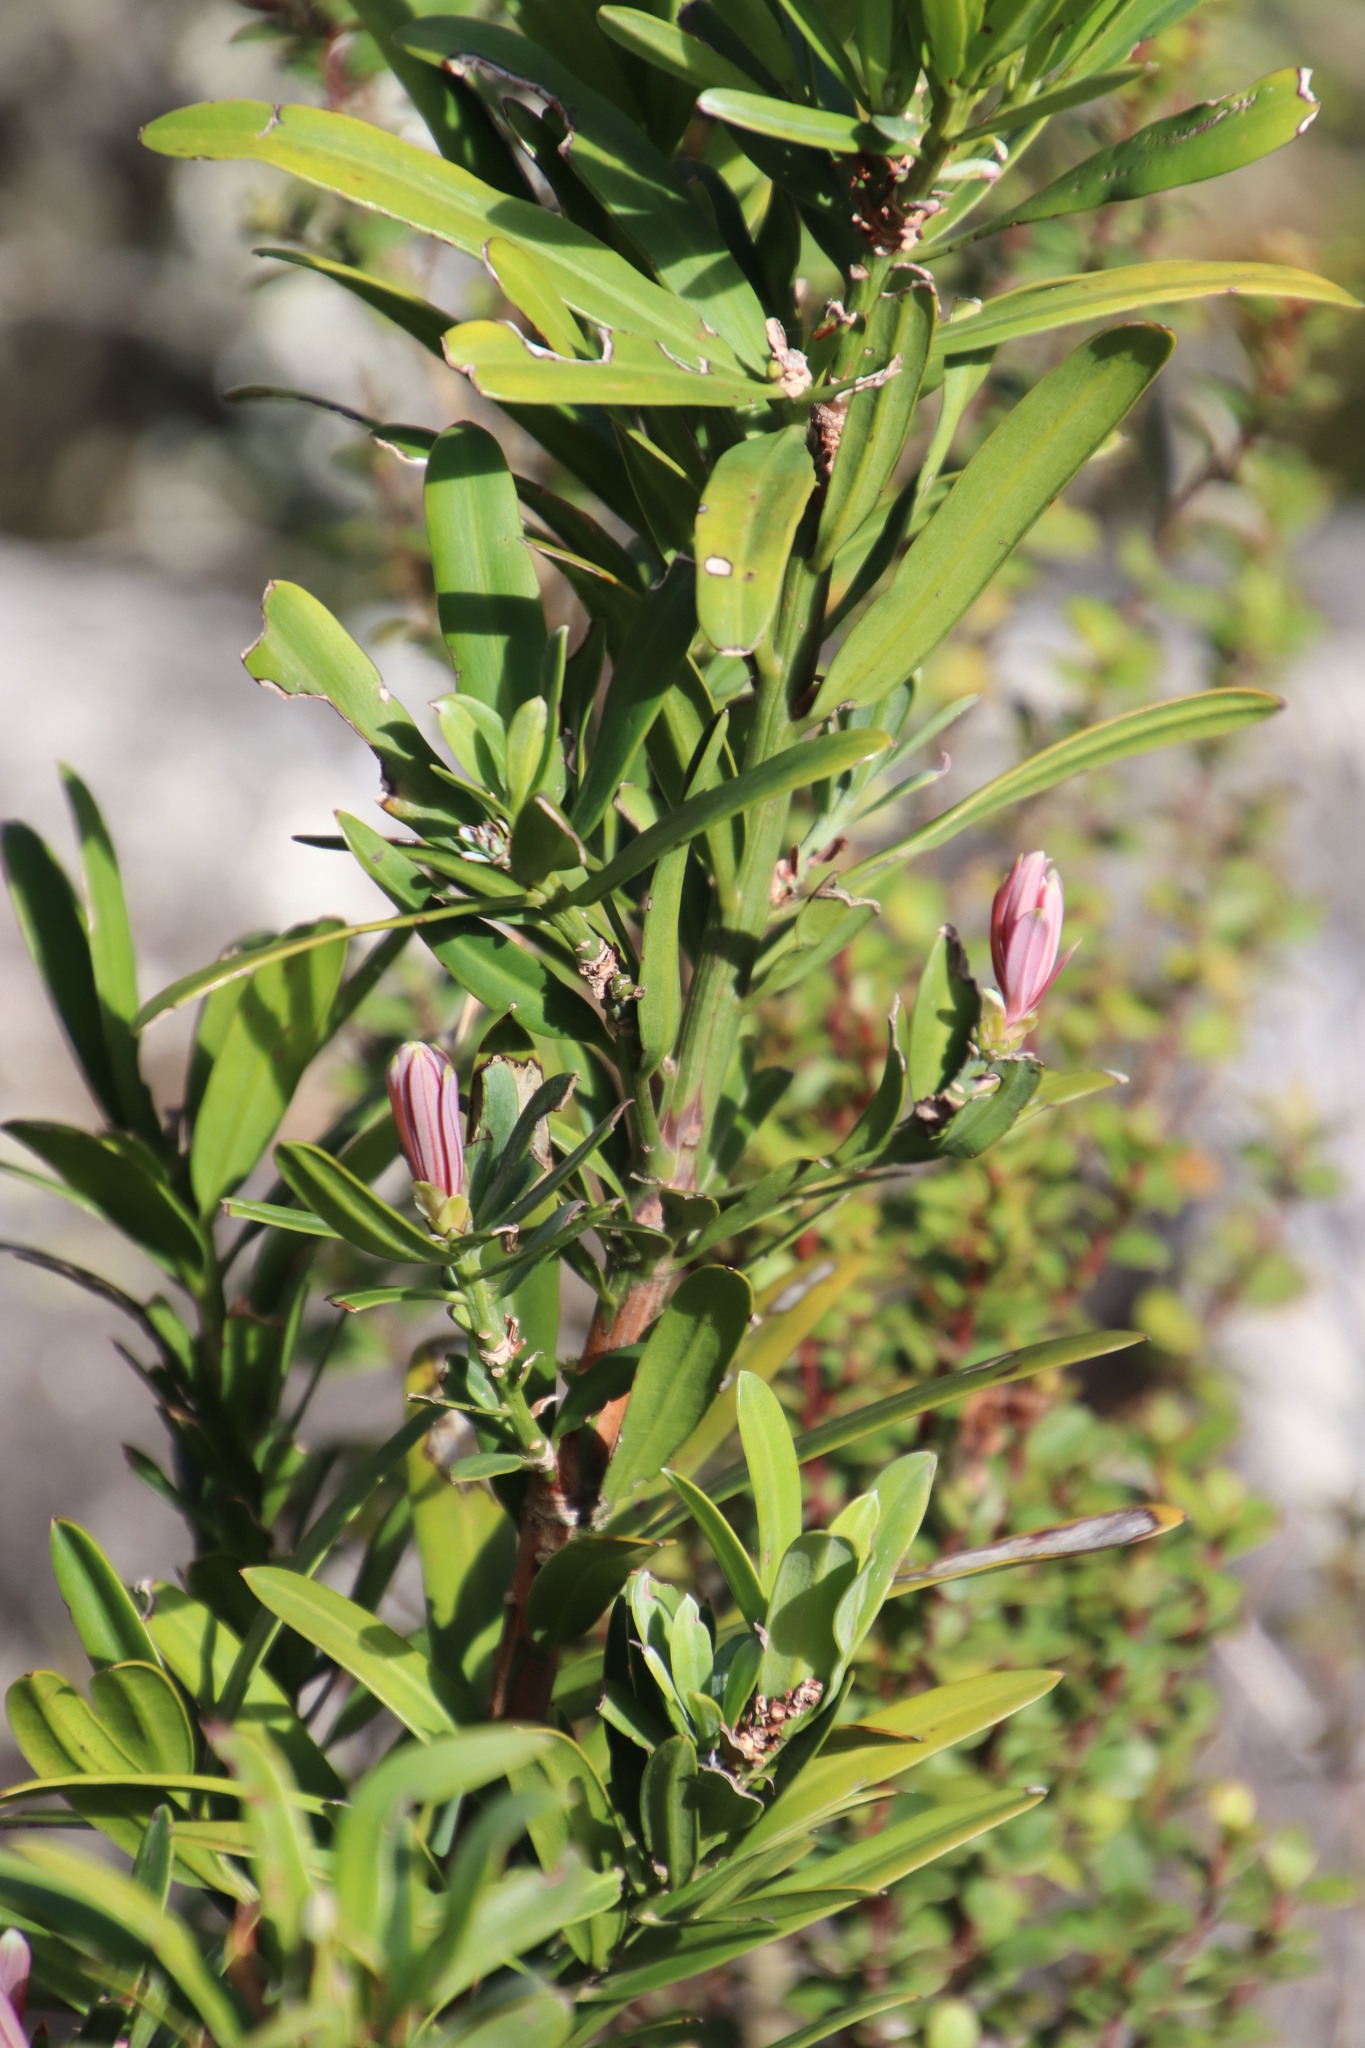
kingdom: Plantae
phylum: Tracheophyta
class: Pinopsida
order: Pinales
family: Podocarpaceae
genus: Podocarpus
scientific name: Podocarpus latifolius
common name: True yellowwood
